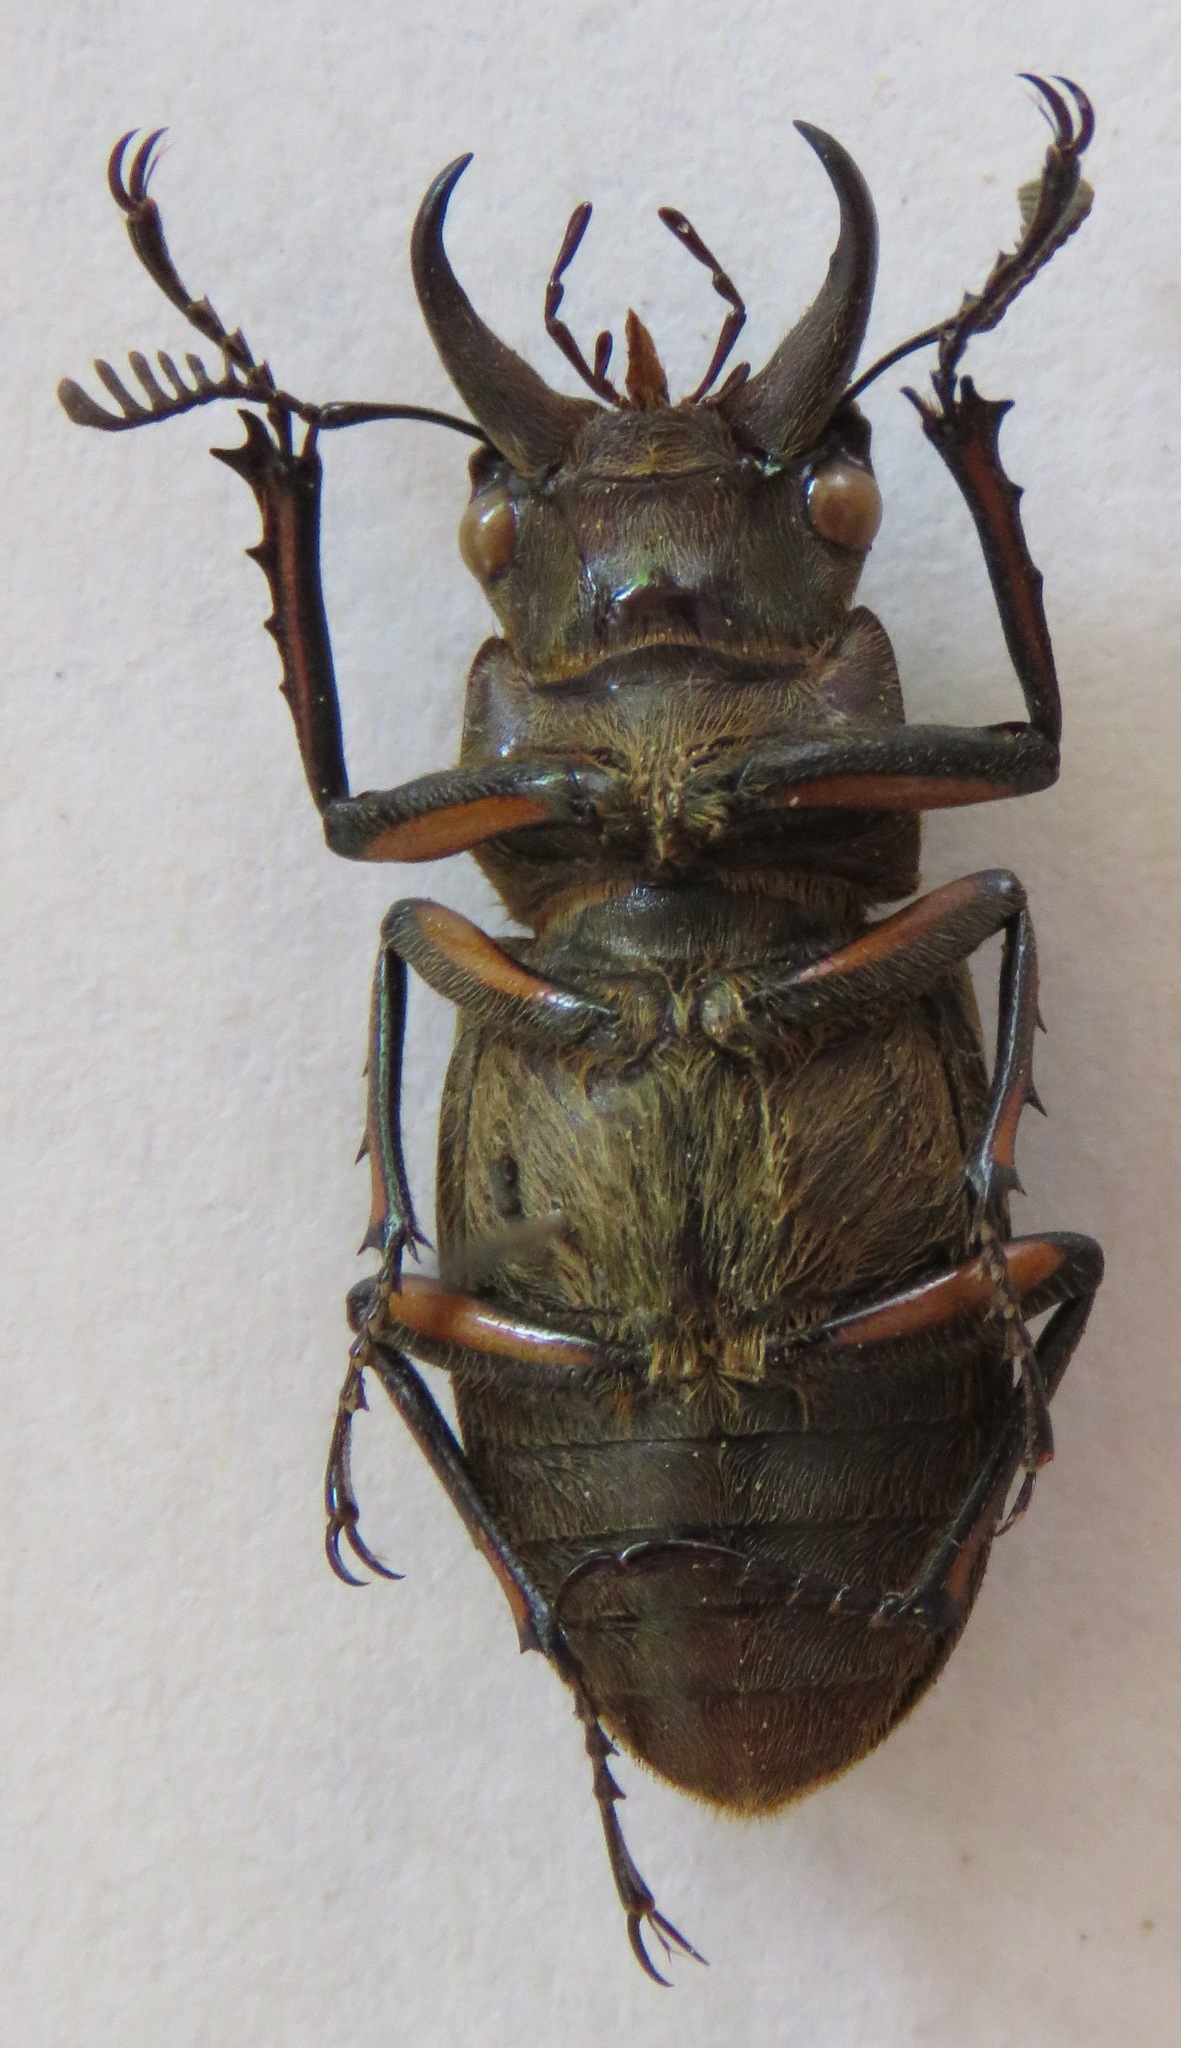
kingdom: Animalia
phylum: Arthropoda
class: Insecta
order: Coleoptera
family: Lucanidae
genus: Lucanus
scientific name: Lucanus satoi
